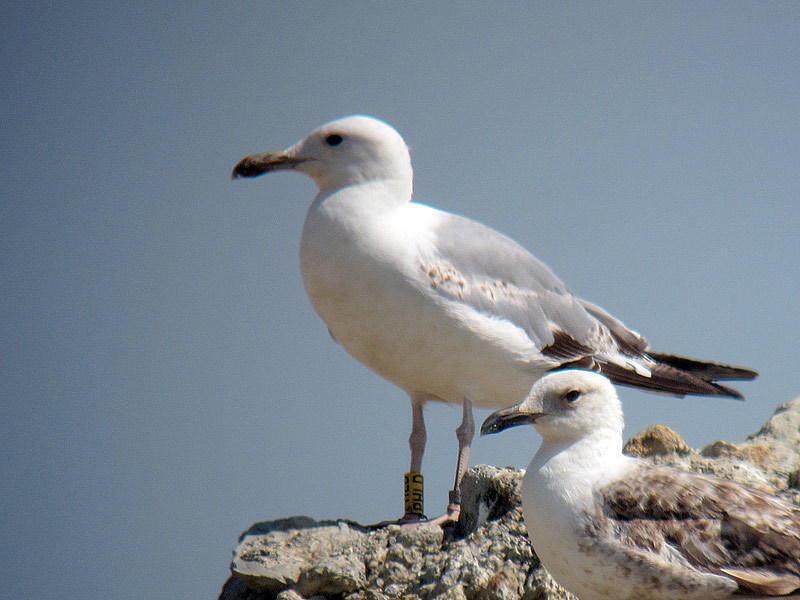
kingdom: Animalia
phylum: Chordata
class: Aves
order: Charadriiformes
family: Laridae
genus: Larus
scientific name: Larus cachinnans
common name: Caspian gull
